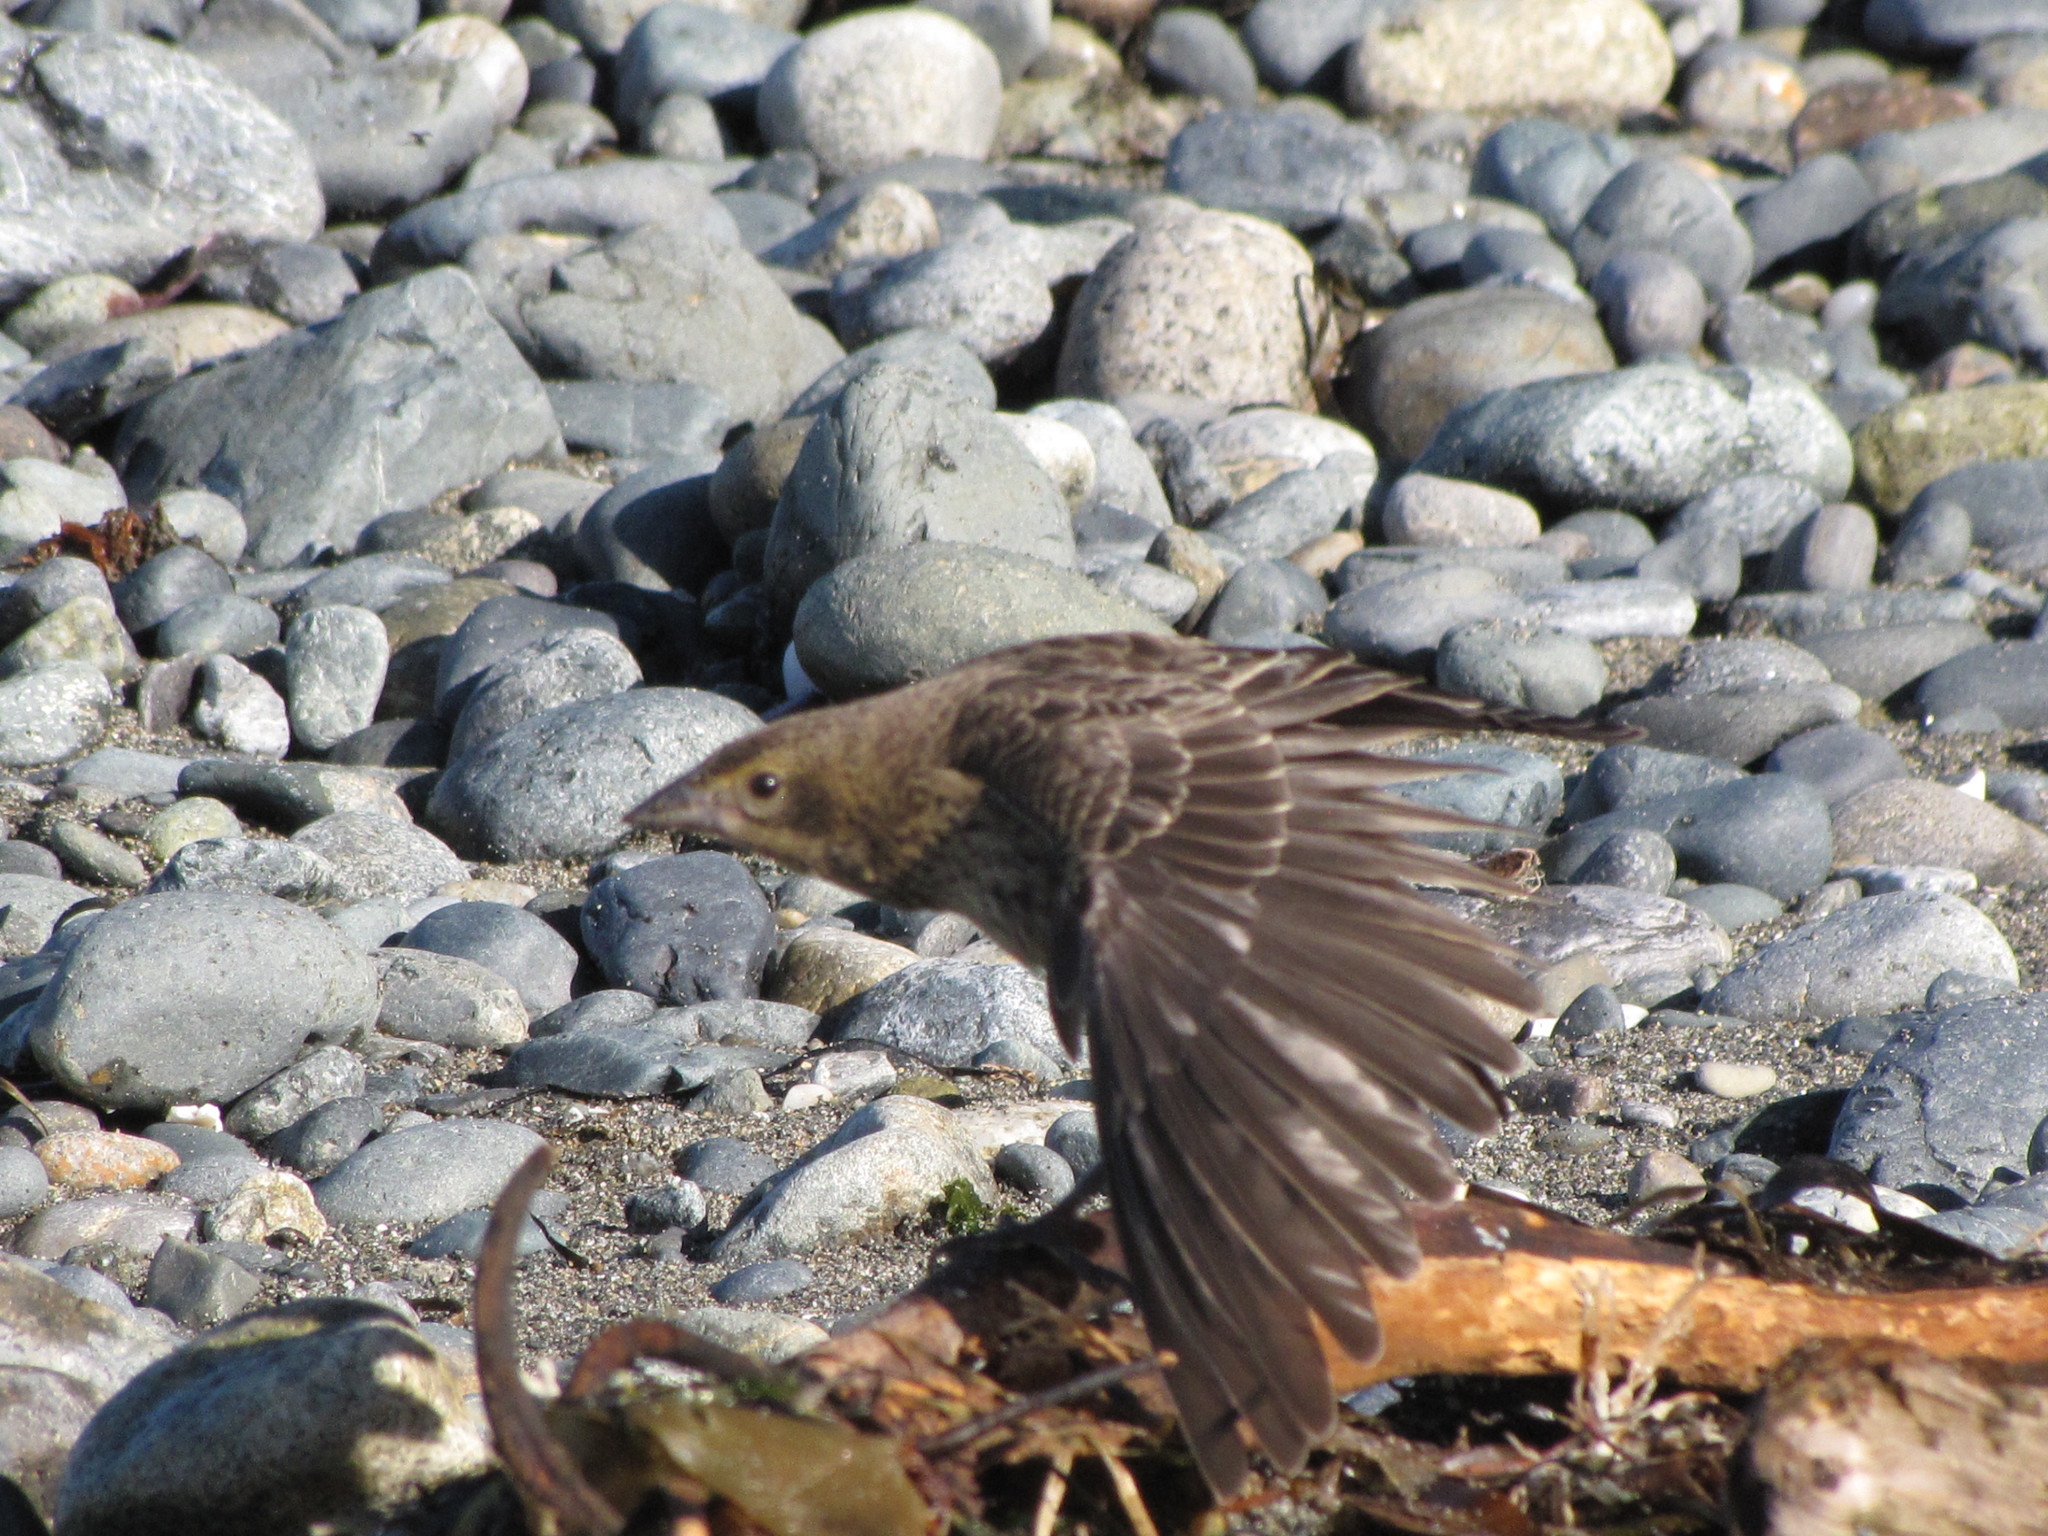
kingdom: Animalia
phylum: Chordata
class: Aves
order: Passeriformes
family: Icteridae
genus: Molothrus
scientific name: Molothrus ater
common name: Brown-headed cowbird
